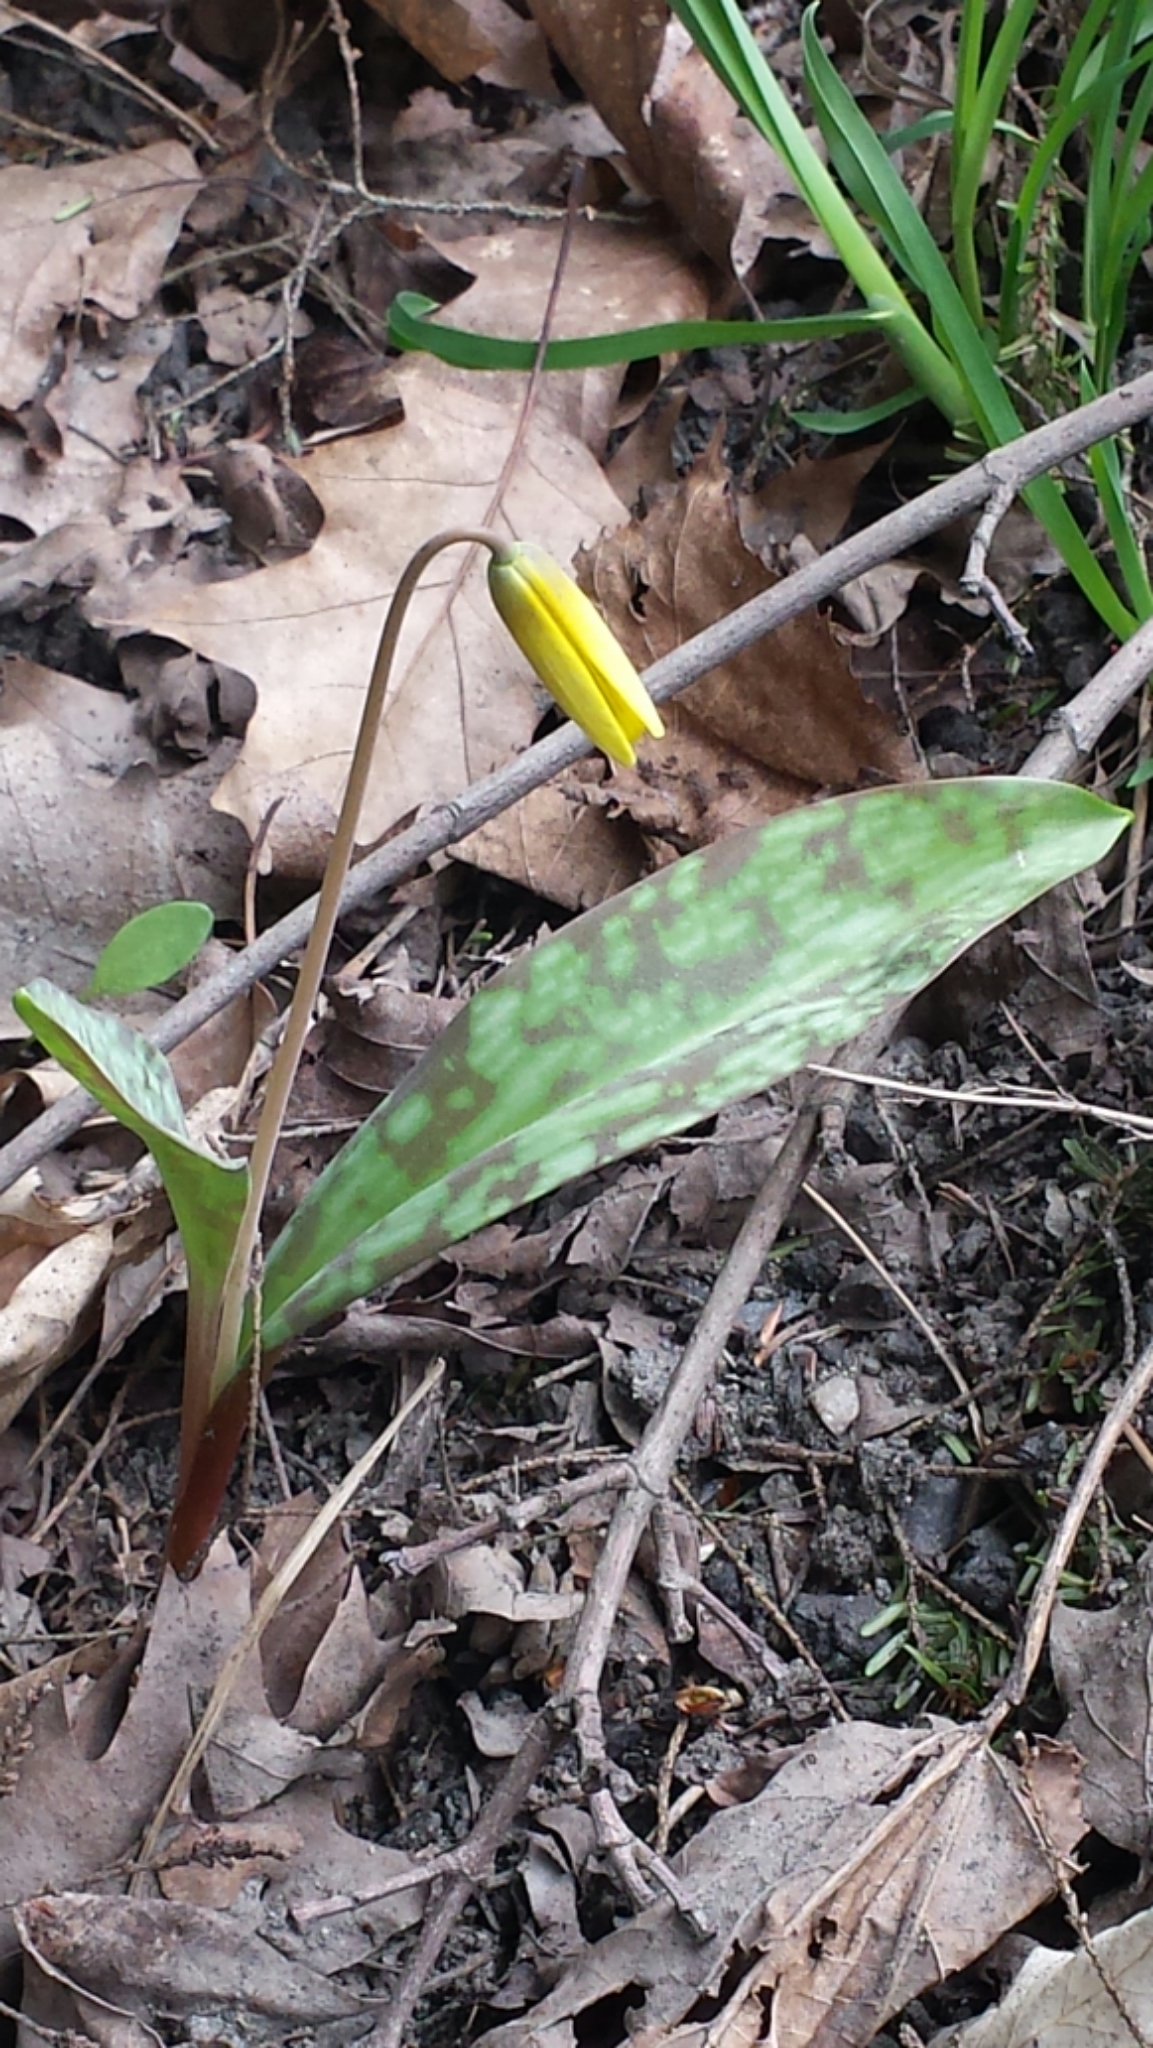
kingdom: Plantae
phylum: Tracheophyta
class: Liliopsida
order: Liliales
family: Liliaceae
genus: Erythronium
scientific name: Erythronium americanum
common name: Yellow adder's-tongue
